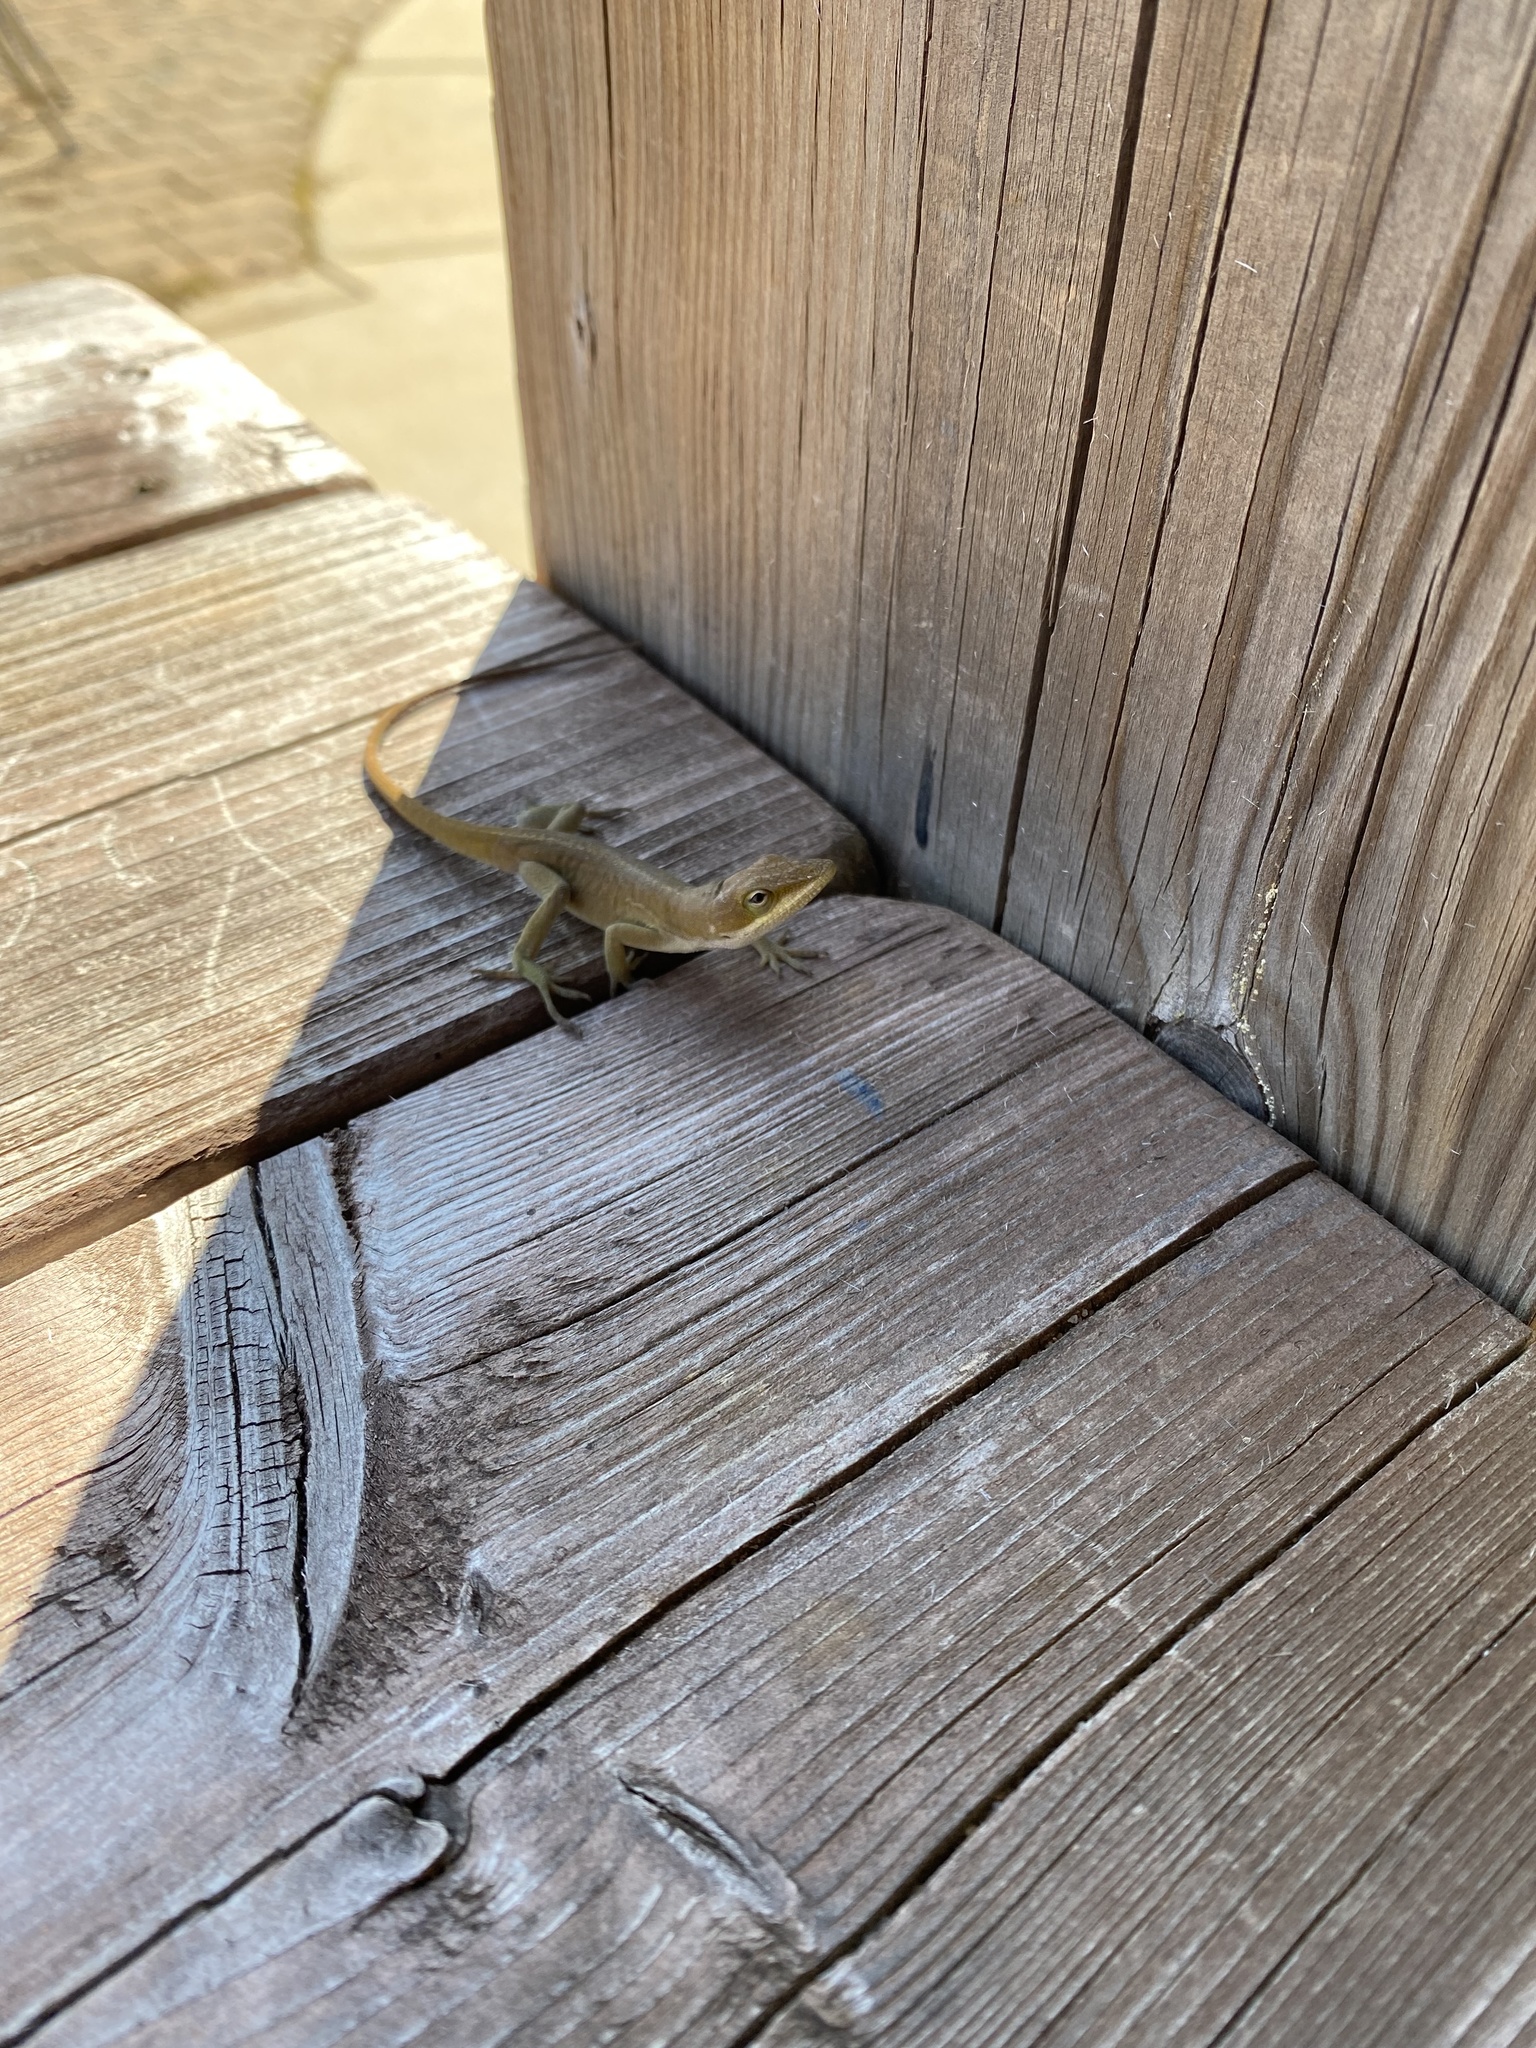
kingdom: Animalia
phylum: Chordata
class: Squamata
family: Dactyloidae
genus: Anolis
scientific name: Anolis carolinensis
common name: Green anole
